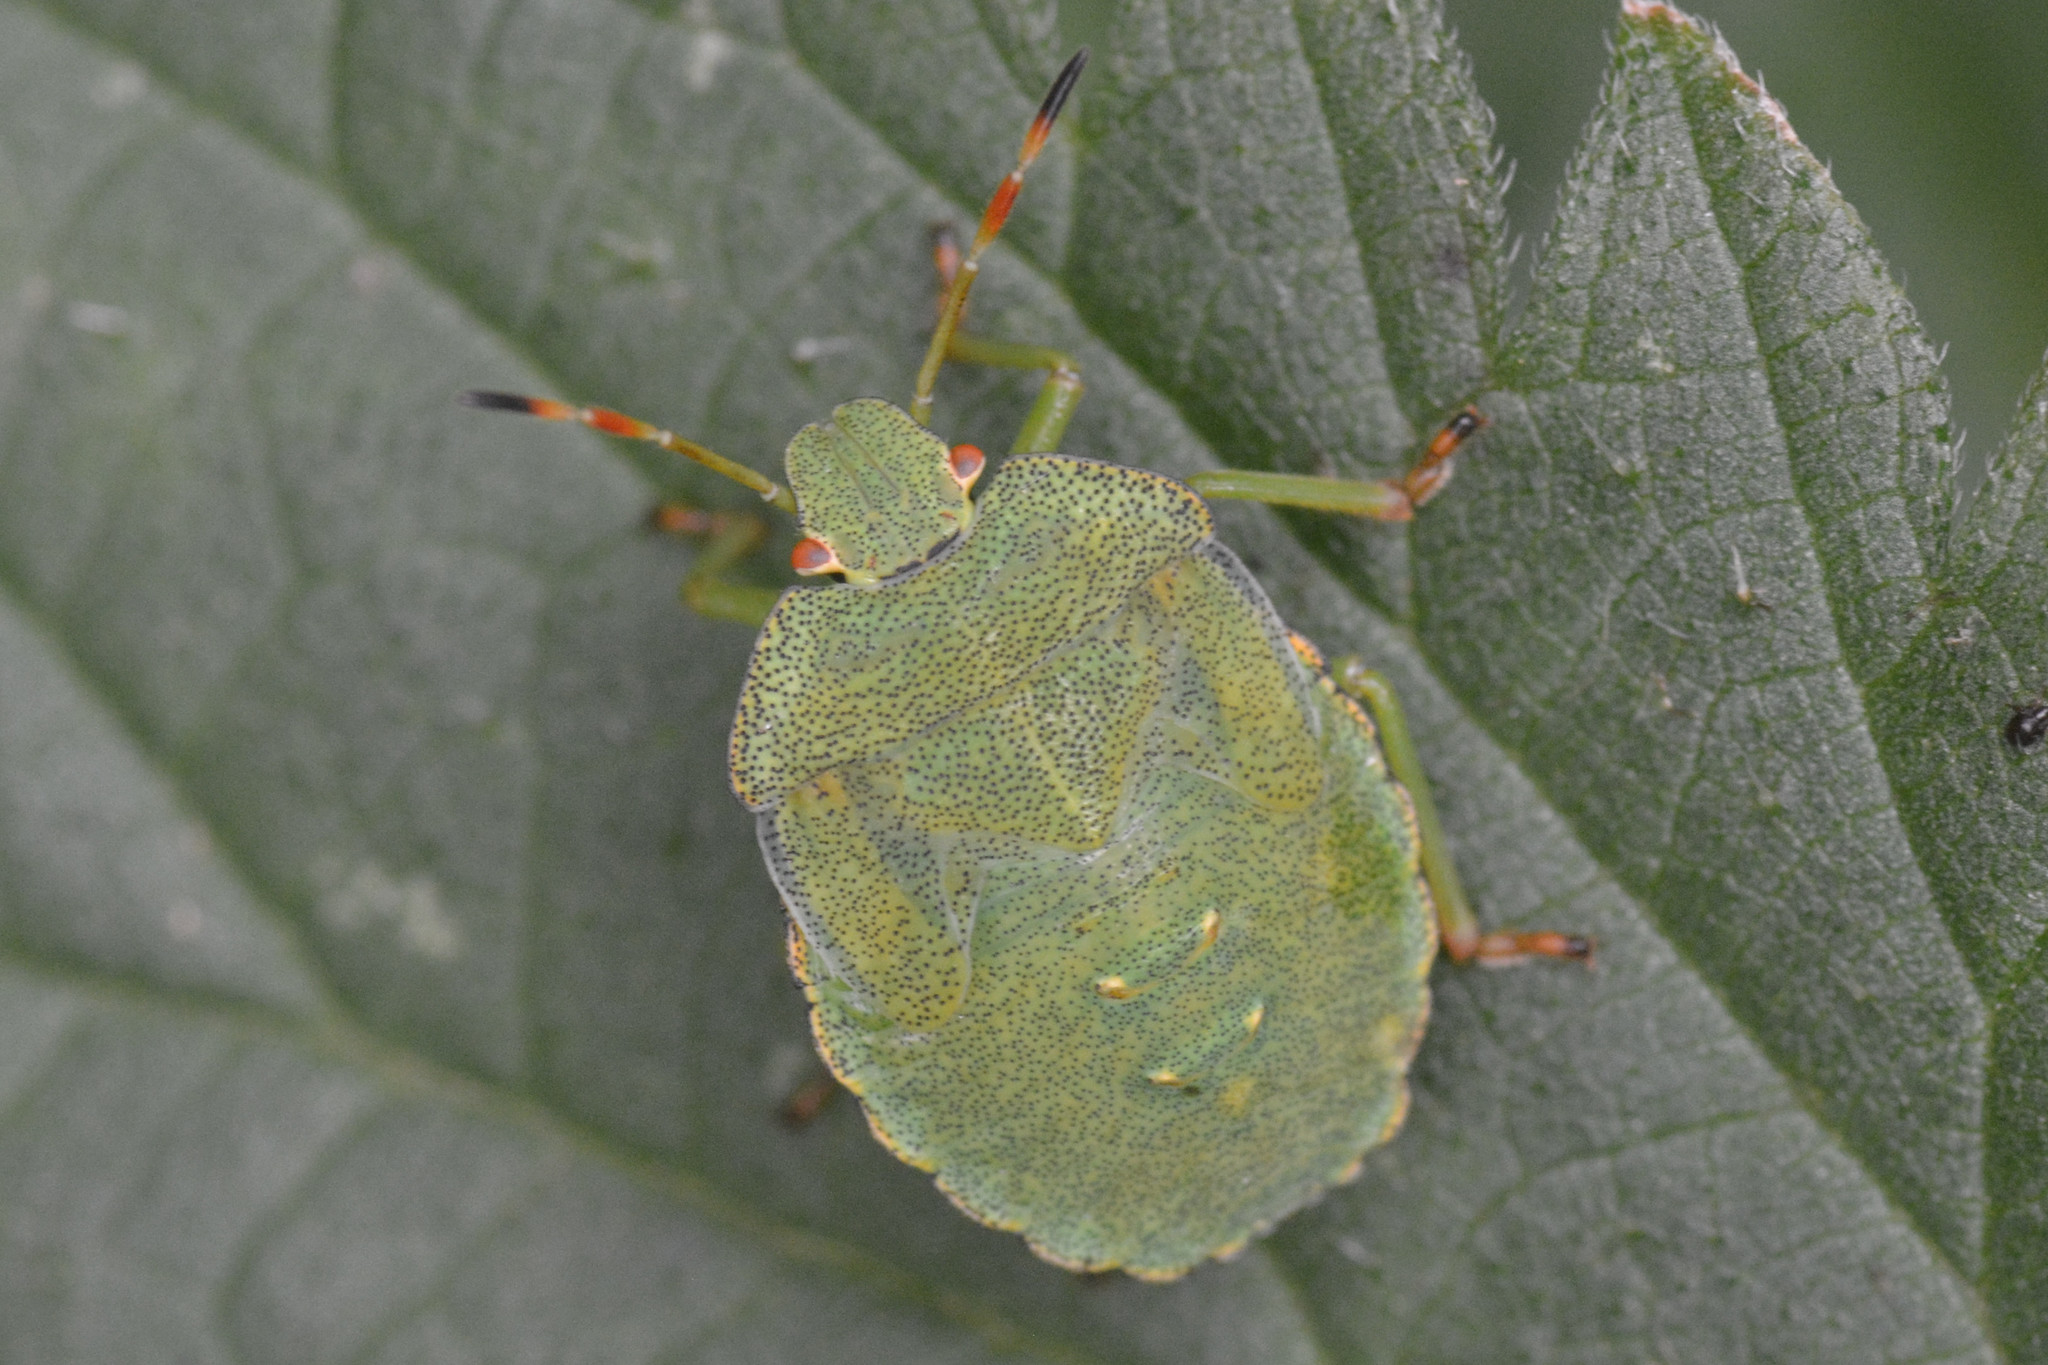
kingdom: Animalia
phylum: Arthropoda
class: Insecta
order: Hemiptera
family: Pentatomidae
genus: Palomena
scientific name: Palomena prasina
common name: Green shieldbug
